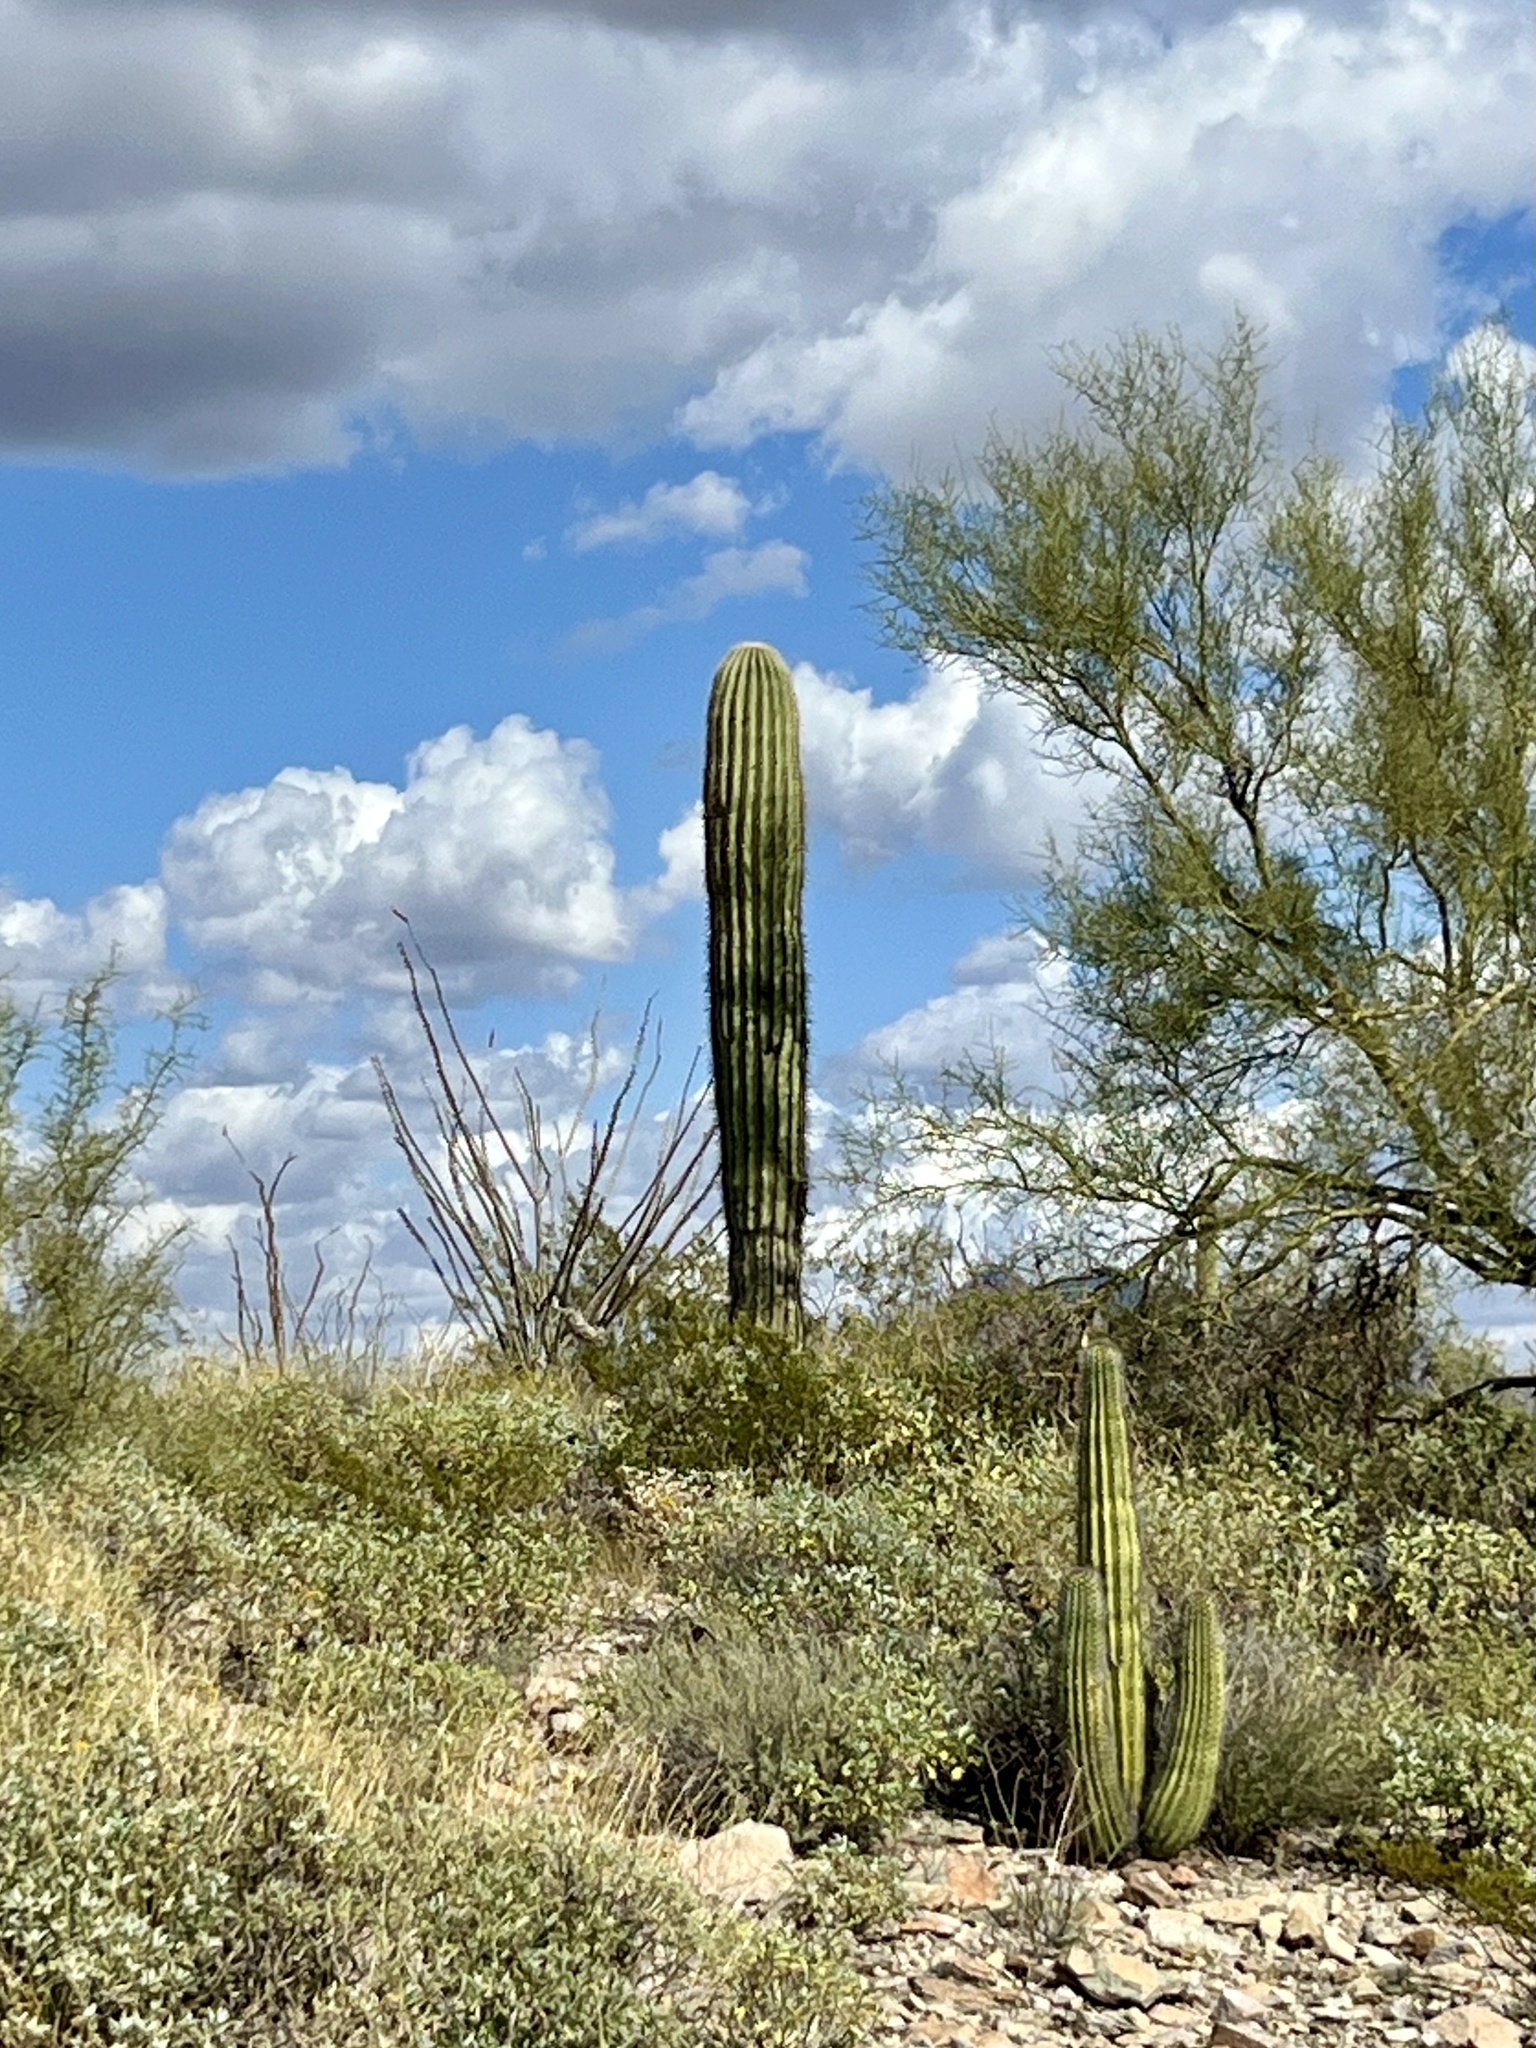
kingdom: Plantae
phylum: Tracheophyta
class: Magnoliopsida
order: Caryophyllales
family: Cactaceae
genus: Carnegiea
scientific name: Carnegiea gigantea
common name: Saguaro
